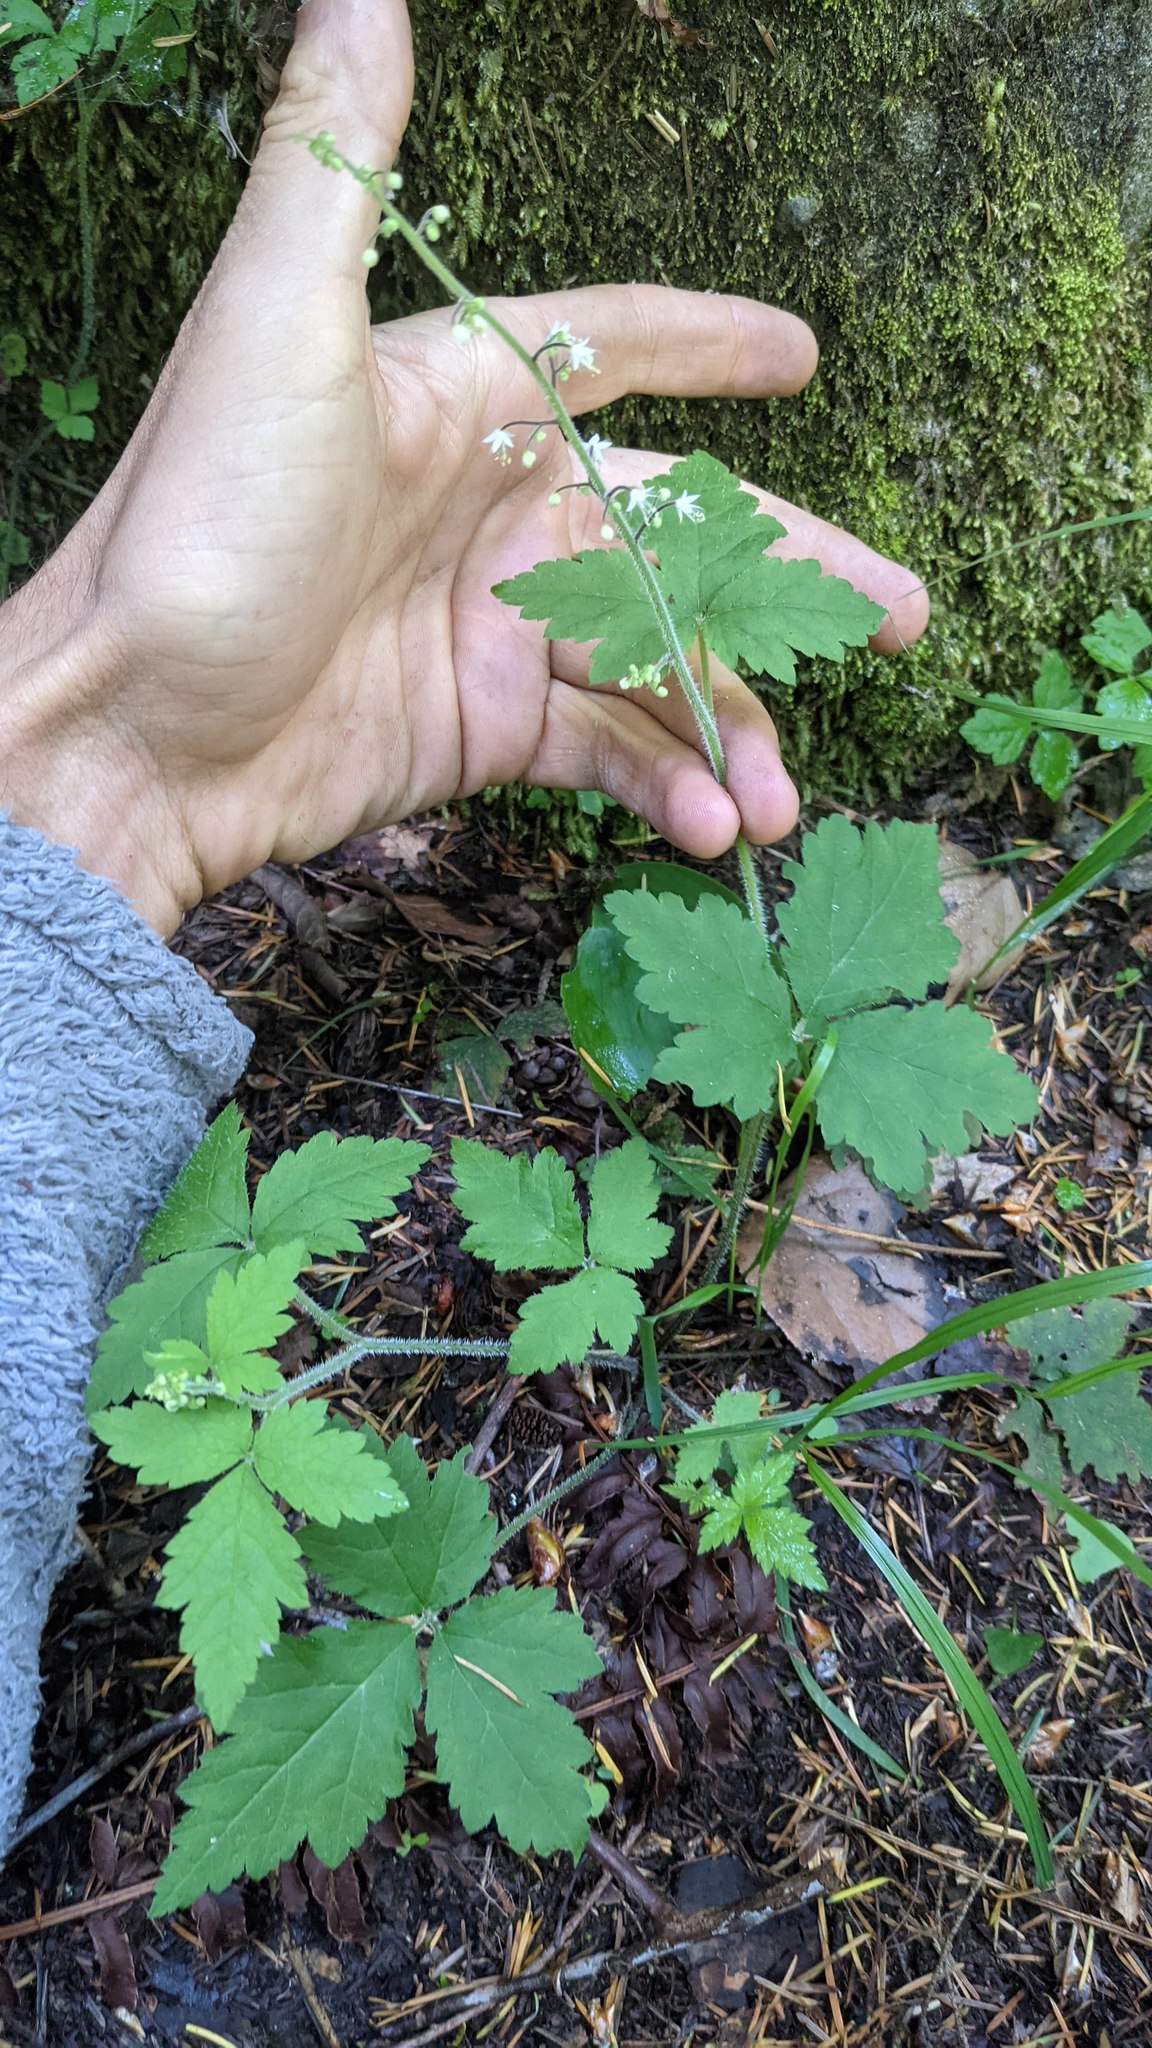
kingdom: Plantae
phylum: Tracheophyta
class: Magnoliopsida
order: Saxifragales
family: Saxifragaceae
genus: Tiarella
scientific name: Tiarella trifoliata
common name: Sugar-scoop
